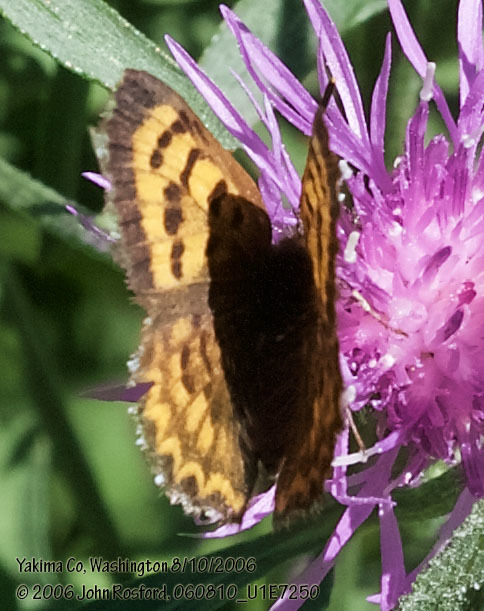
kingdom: Animalia
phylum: Arthropoda
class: Insecta
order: Lepidoptera
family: Lycaenidae
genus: Tharsalea
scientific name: Tharsalea mariposa
